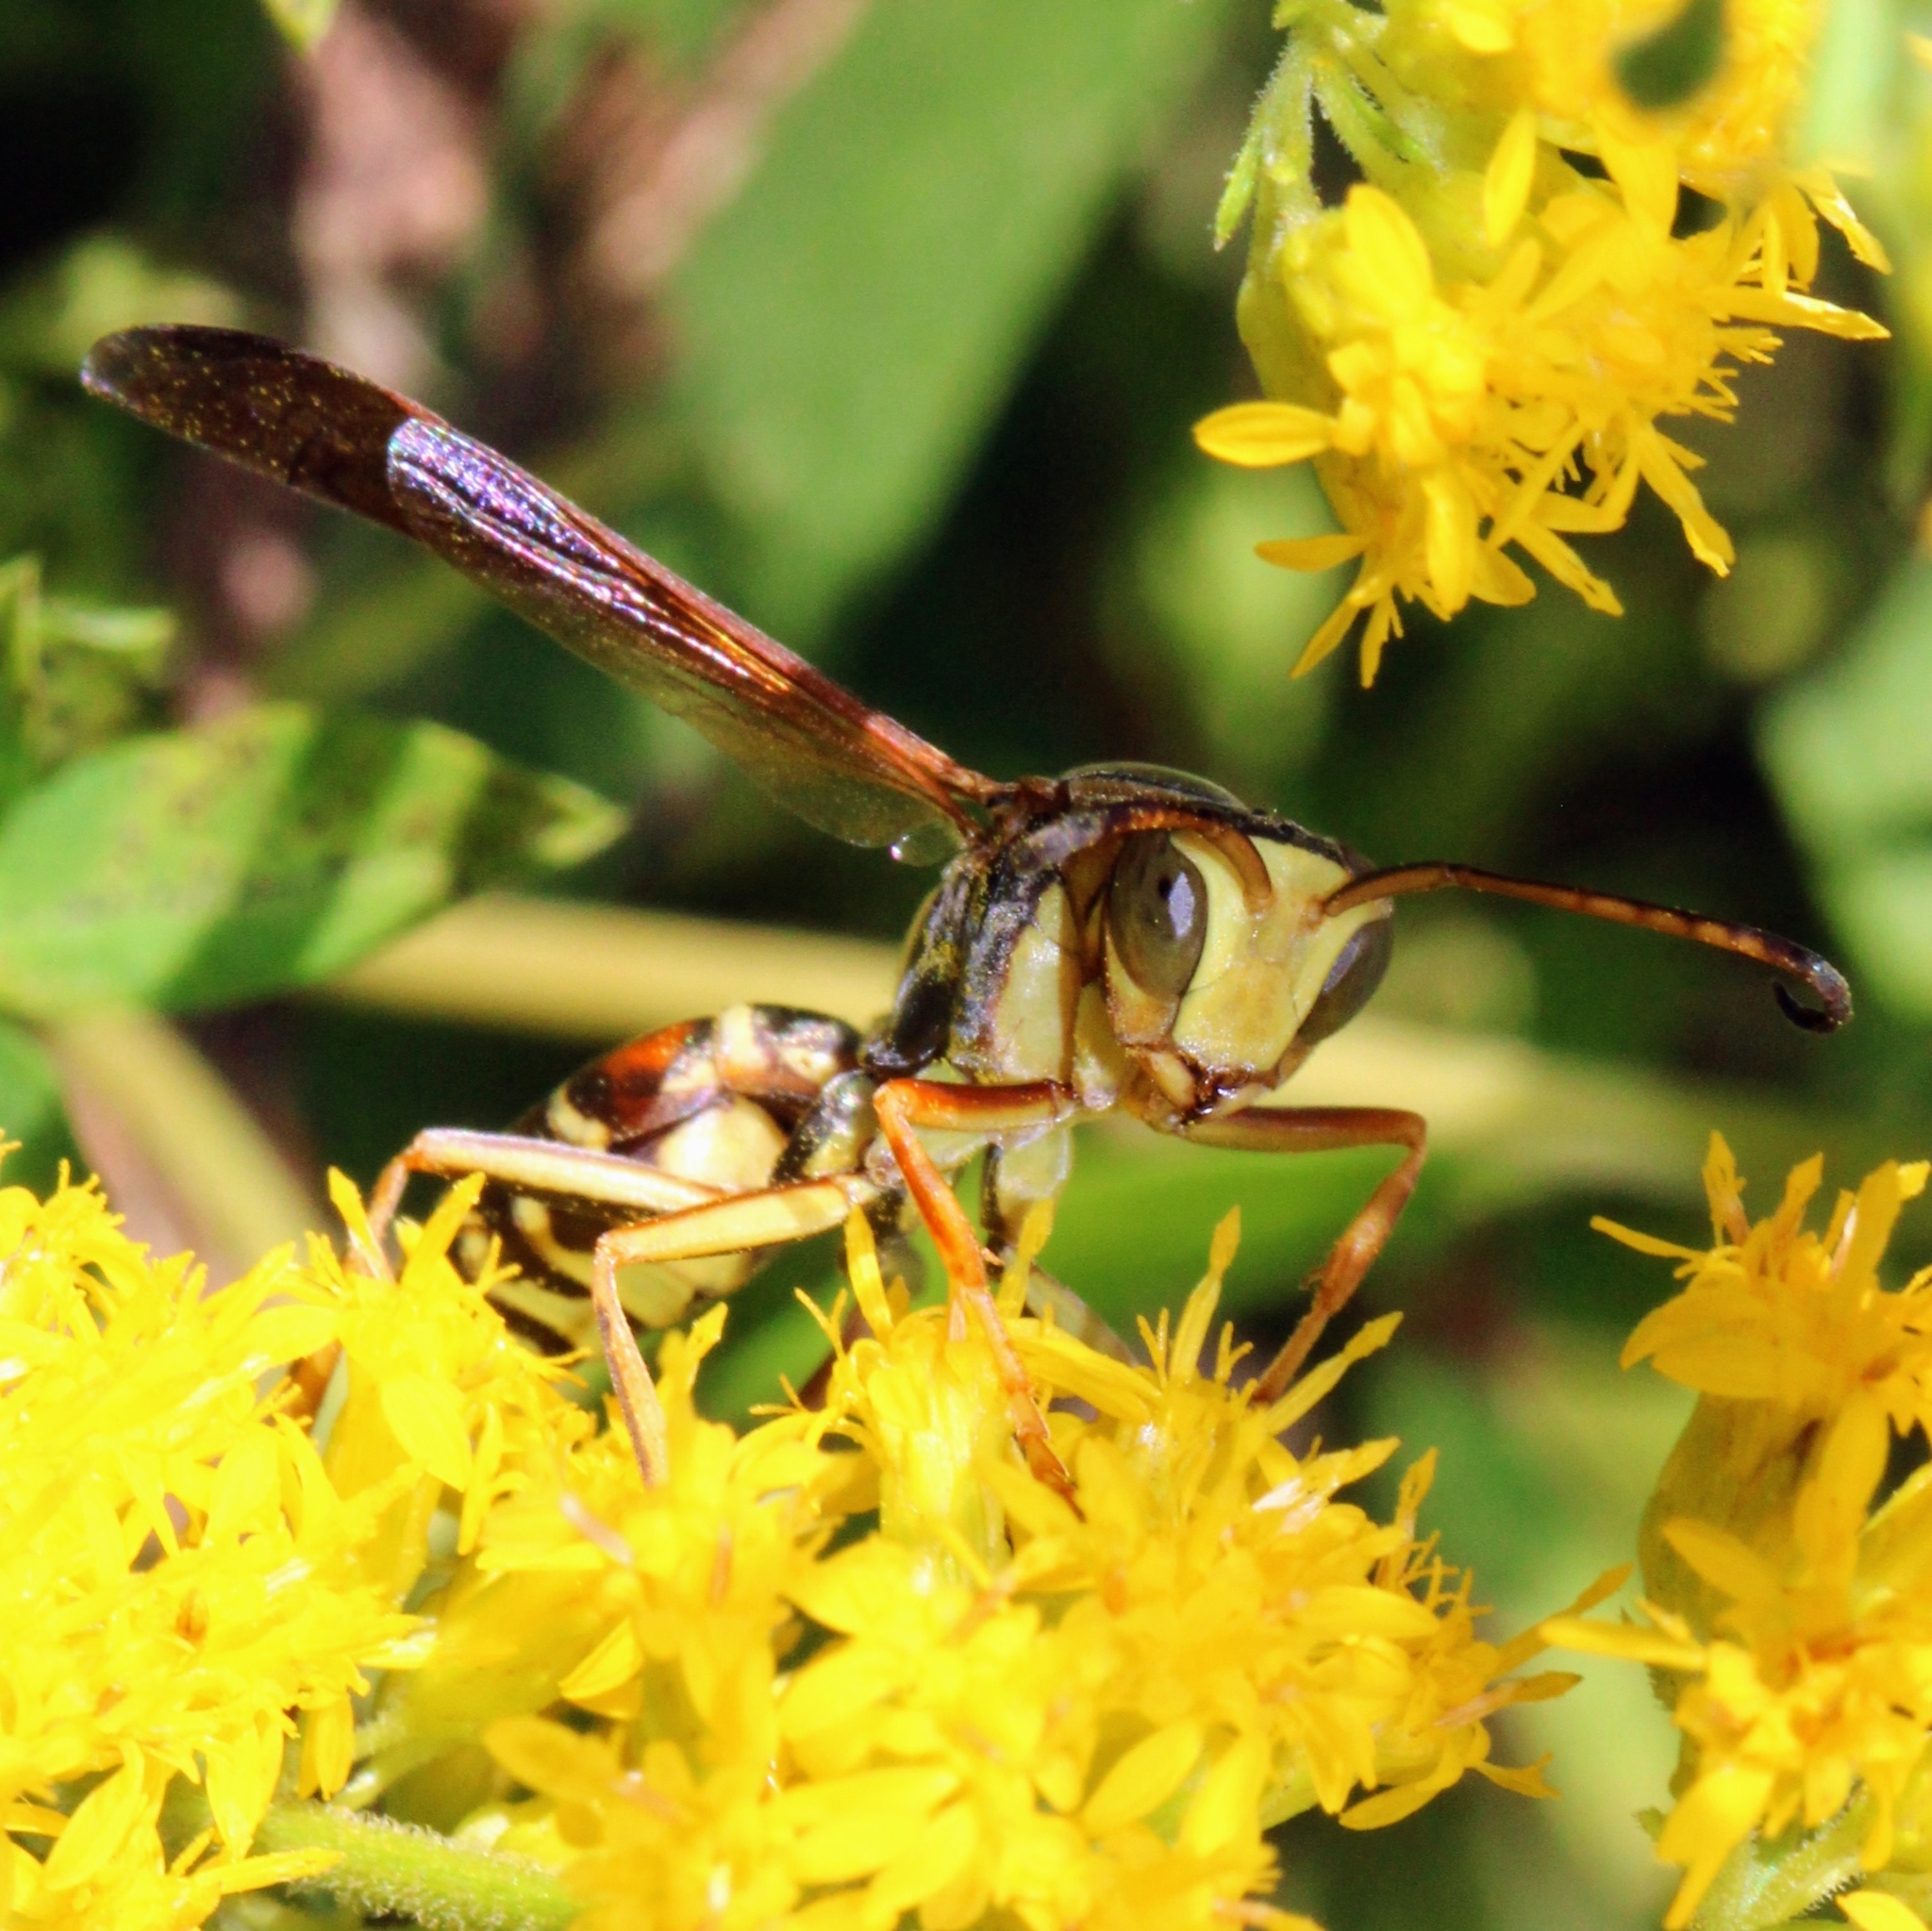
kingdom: Animalia
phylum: Arthropoda
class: Insecta
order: Hymenoptera
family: Eumenidae
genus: Polistes
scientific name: Polistes fuscatus
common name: Dark paper wasp
